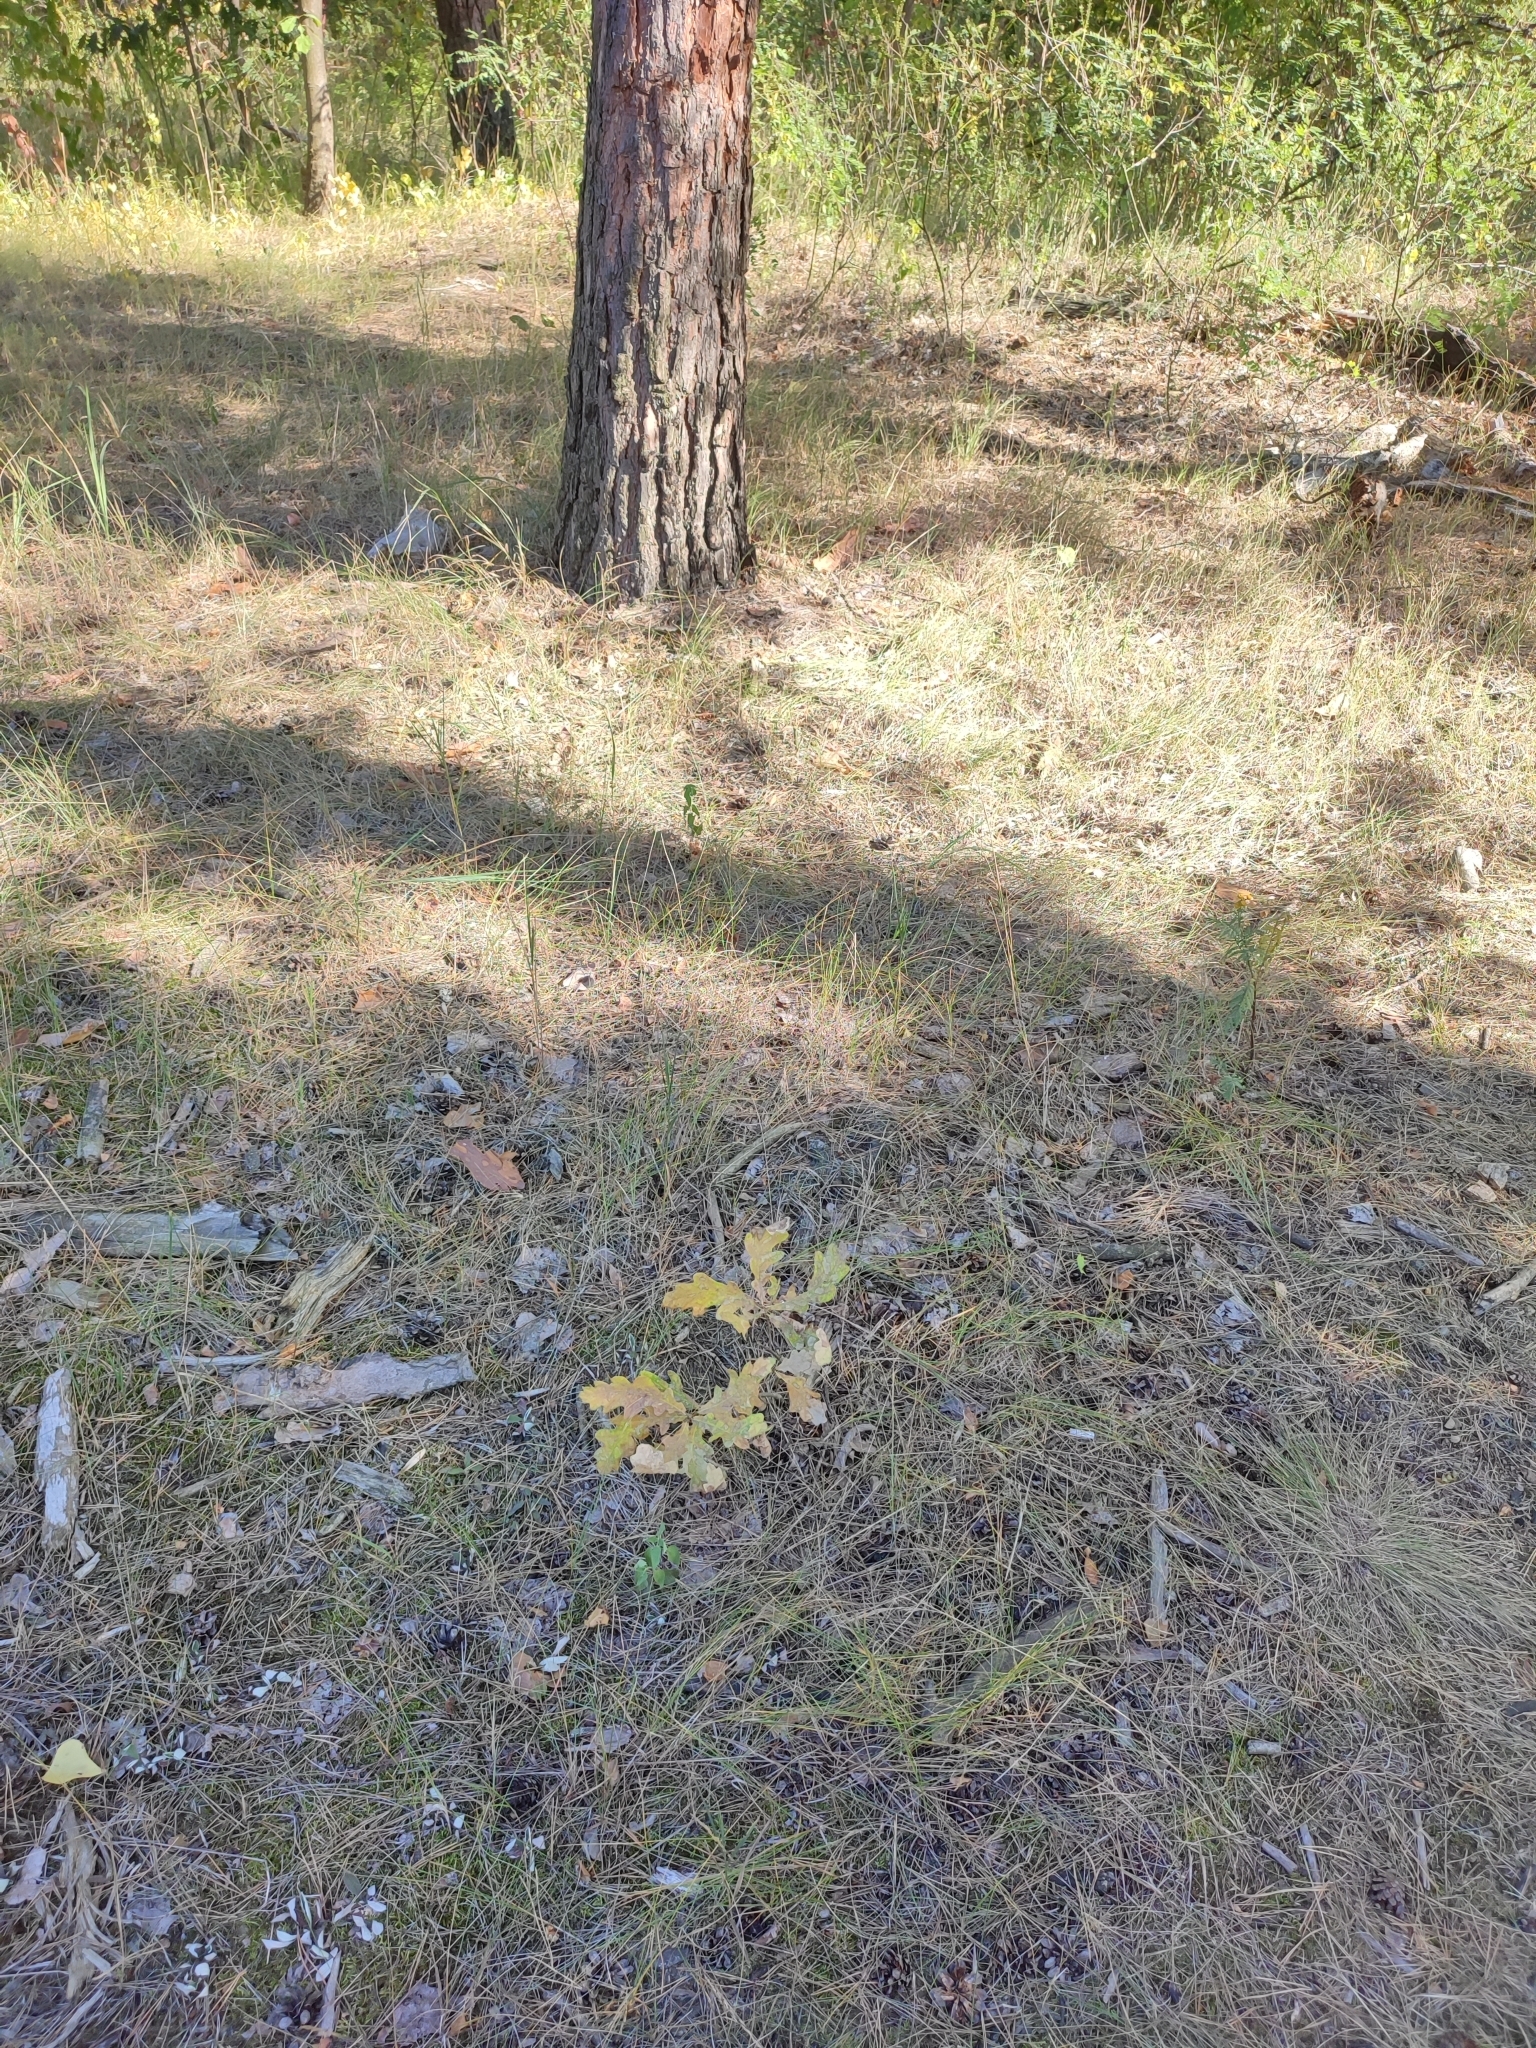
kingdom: Plantae
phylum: Tracheophyta
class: Magnoliopsida
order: Fagales
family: Fagaceae
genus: Quercus
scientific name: Quercus robur
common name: Pedunculate oak
